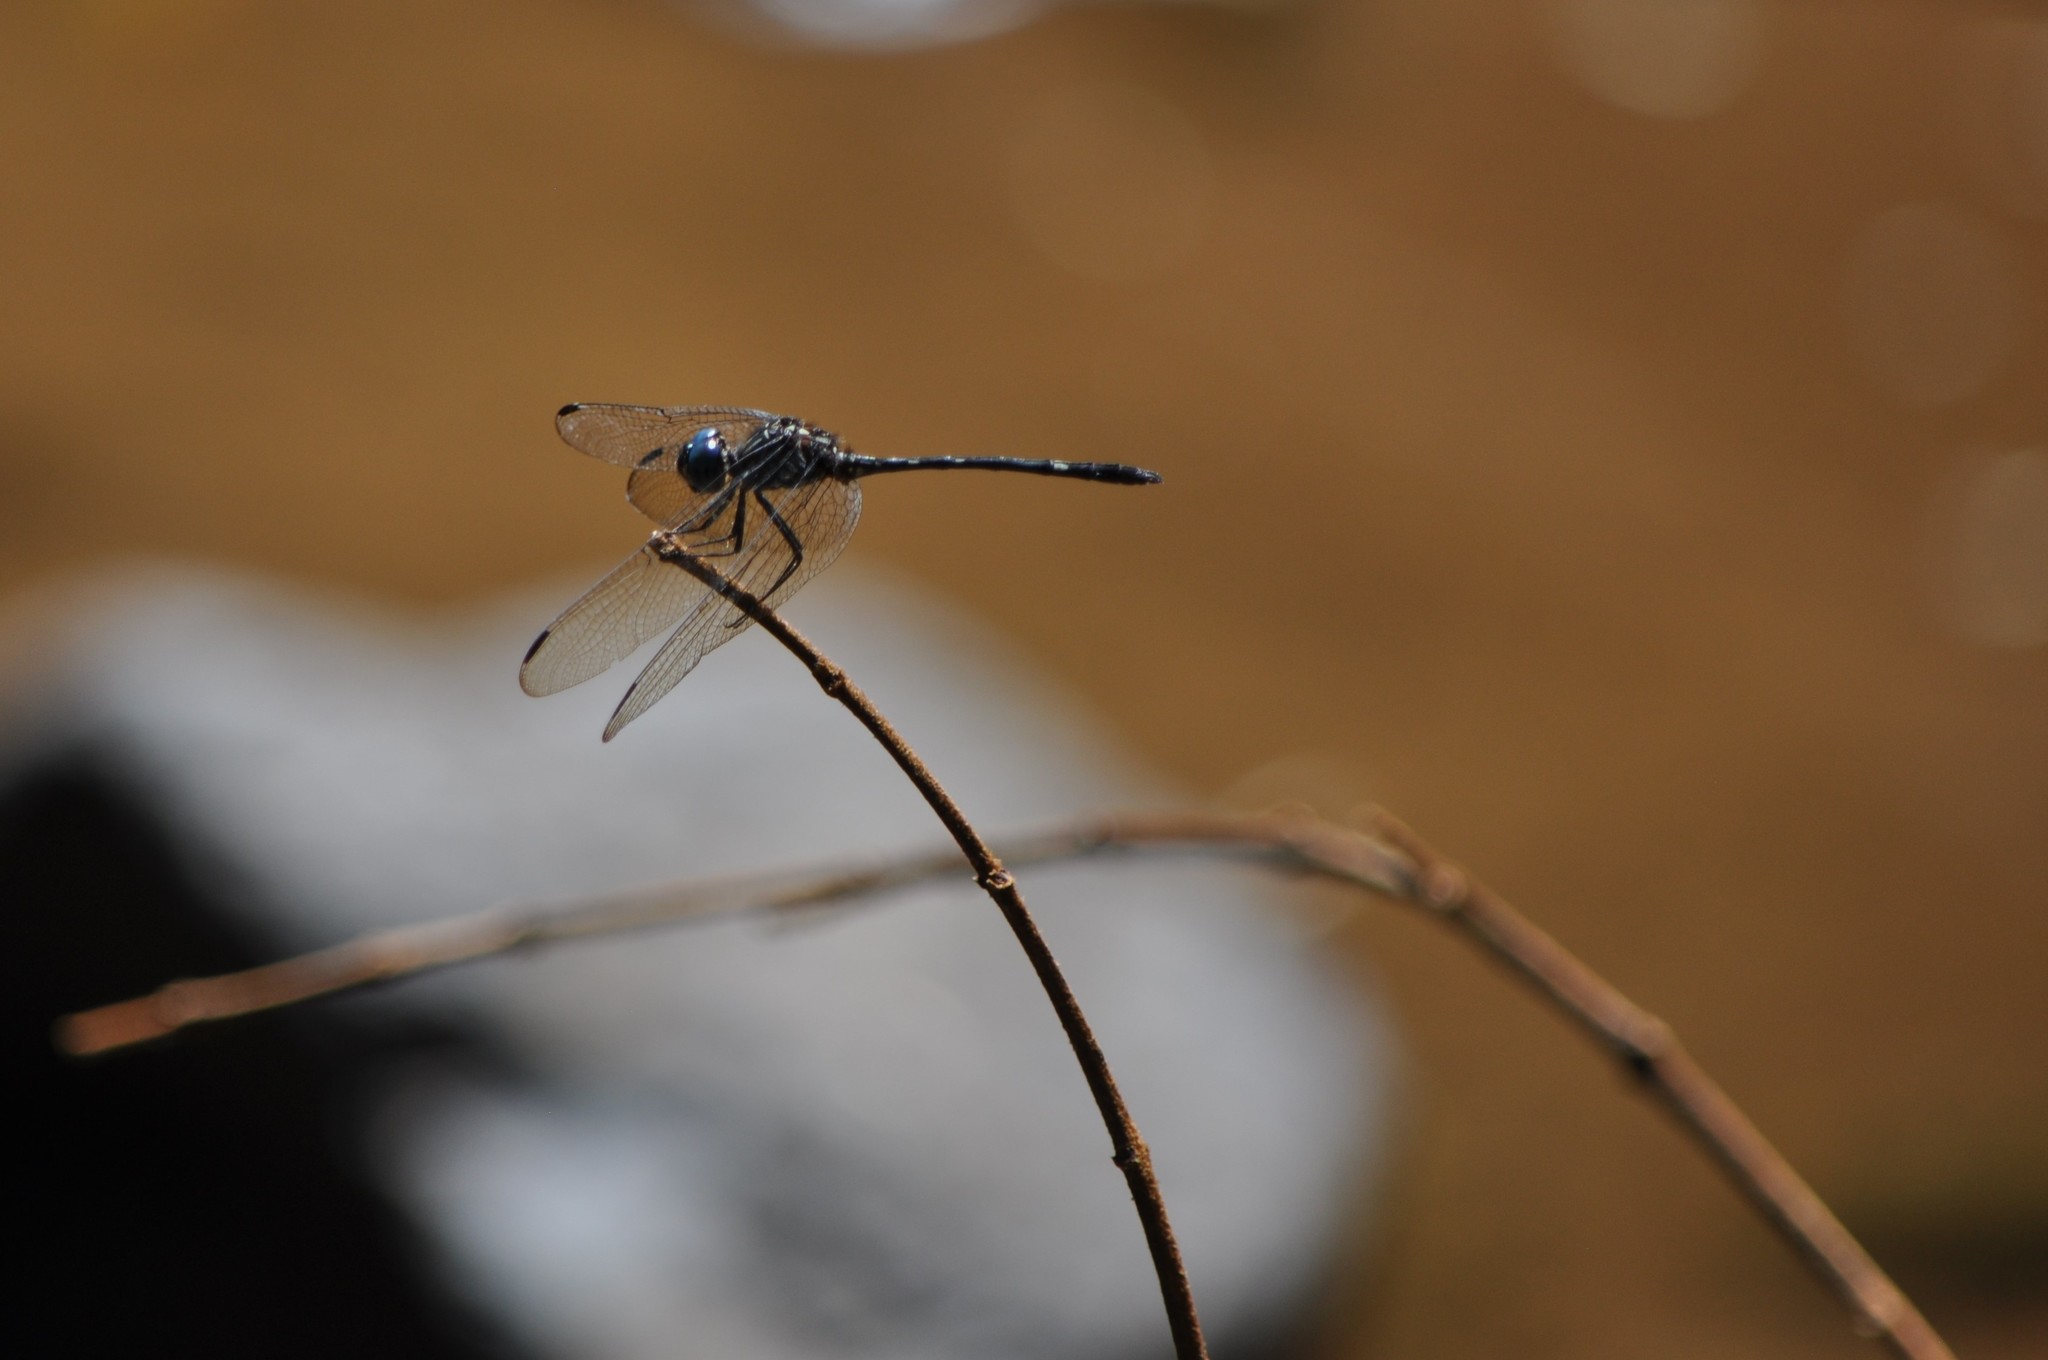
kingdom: Animalia
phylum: Arthropoda
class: Insecta
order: Odonata
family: Libellulidae
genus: Dythemis
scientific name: Dythemis nigra
